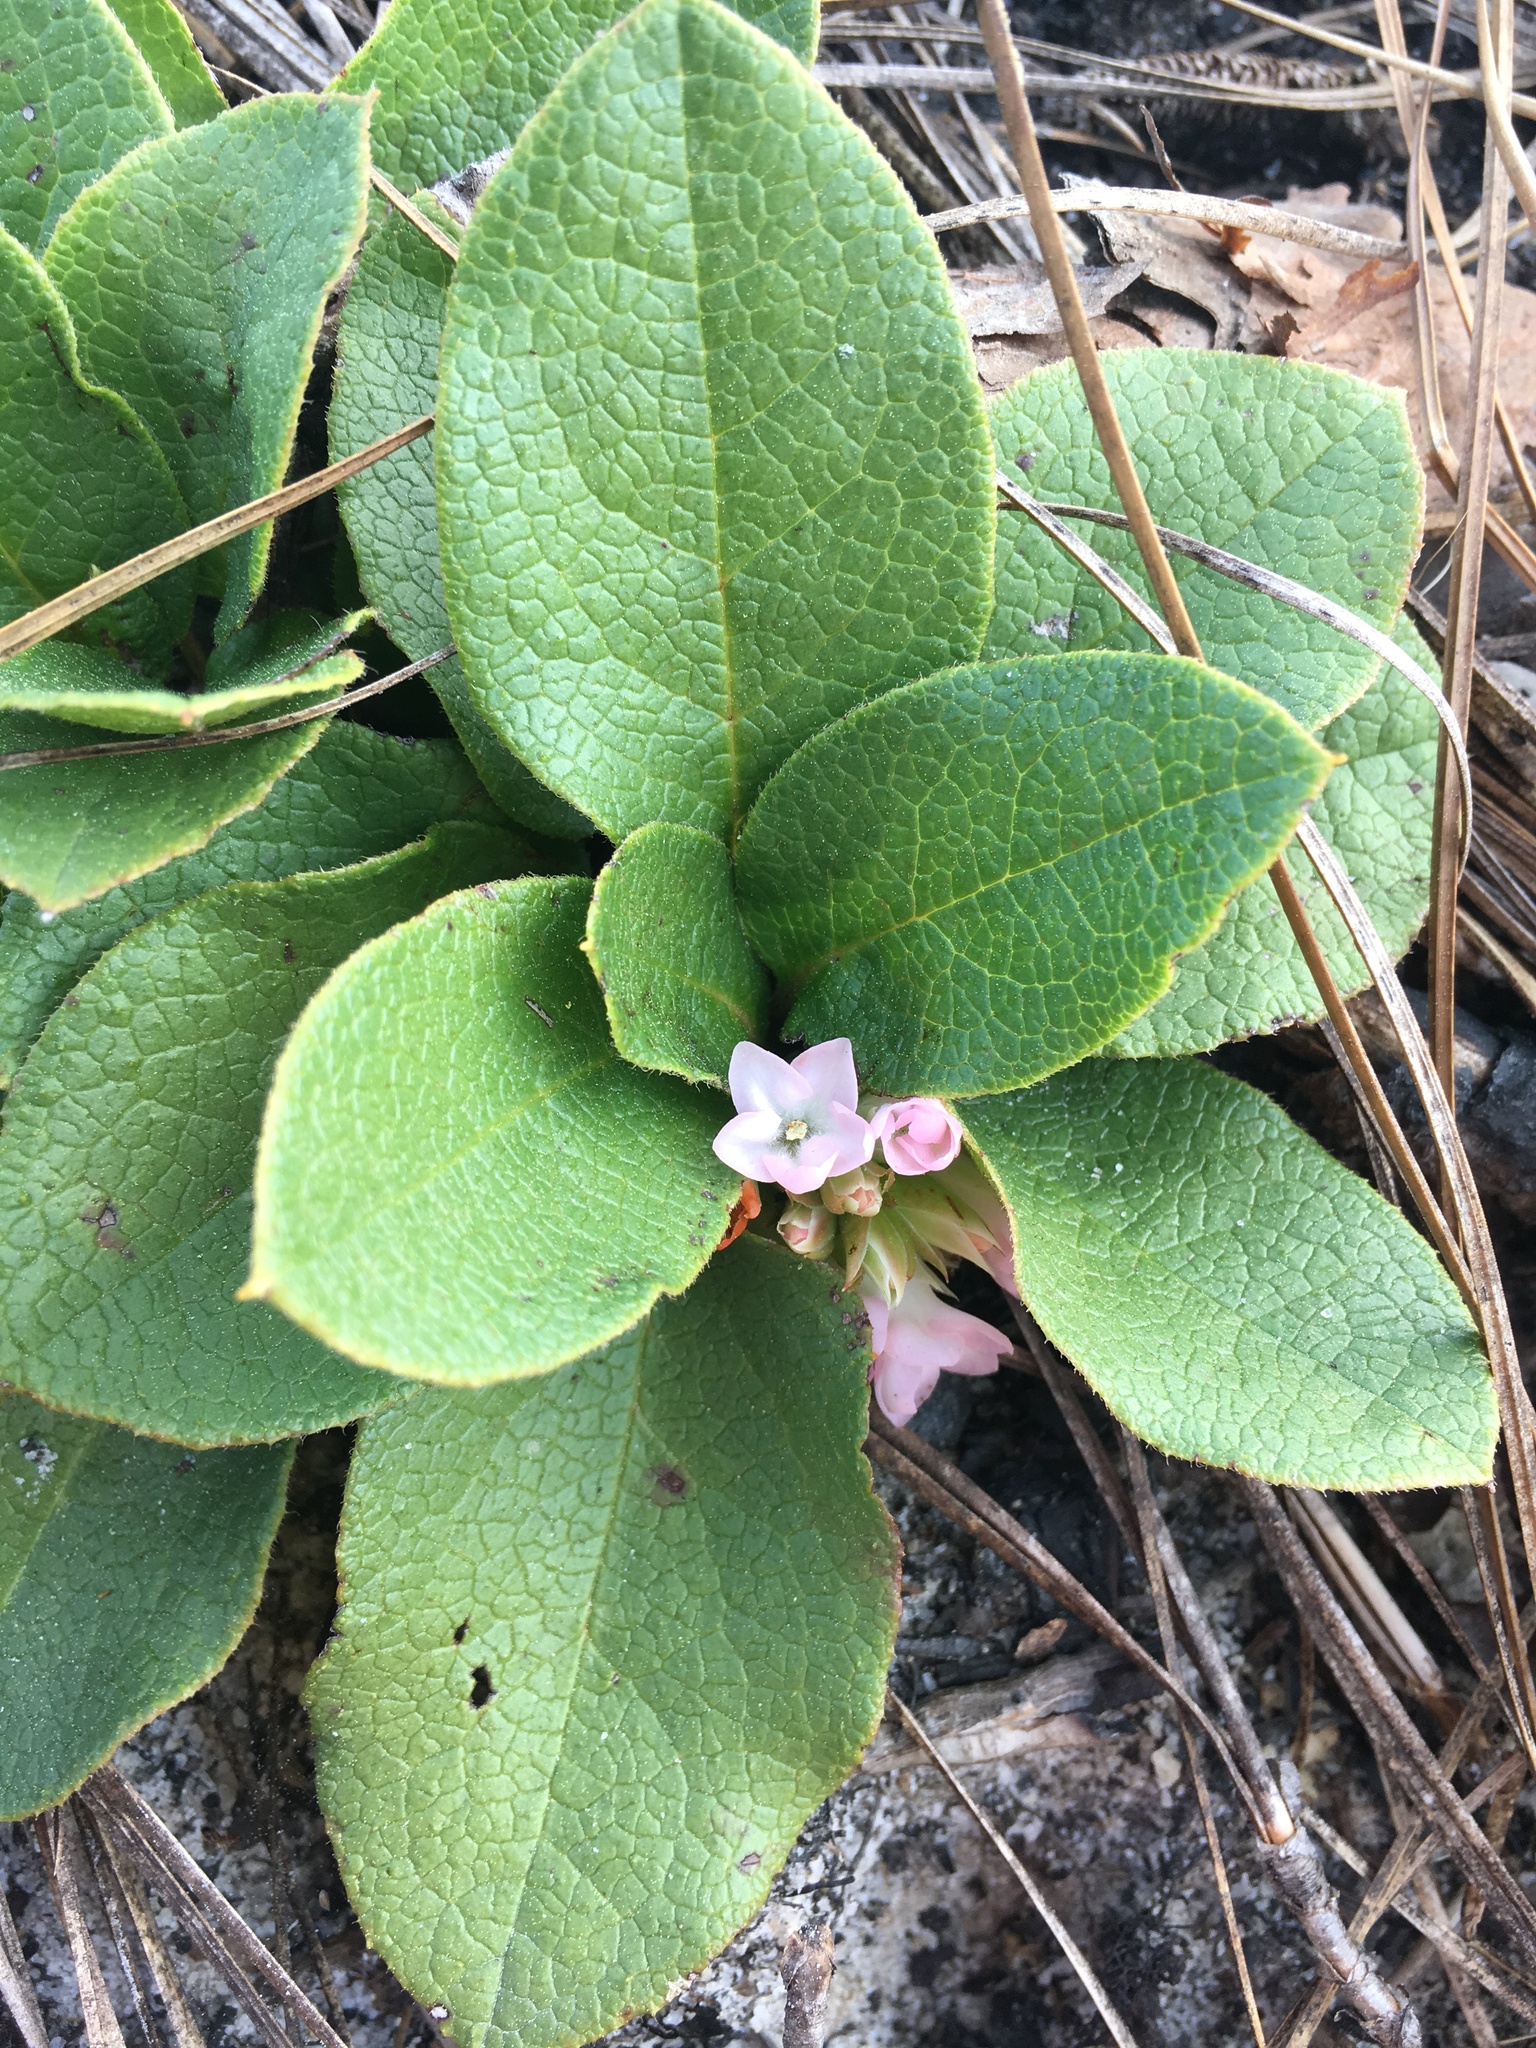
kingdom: Plantae
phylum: Tracheophyta
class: Magnoliopsida
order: Ericales
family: Ericaceae
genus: Epigaea
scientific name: Epigaea repens
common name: Gravelroot
